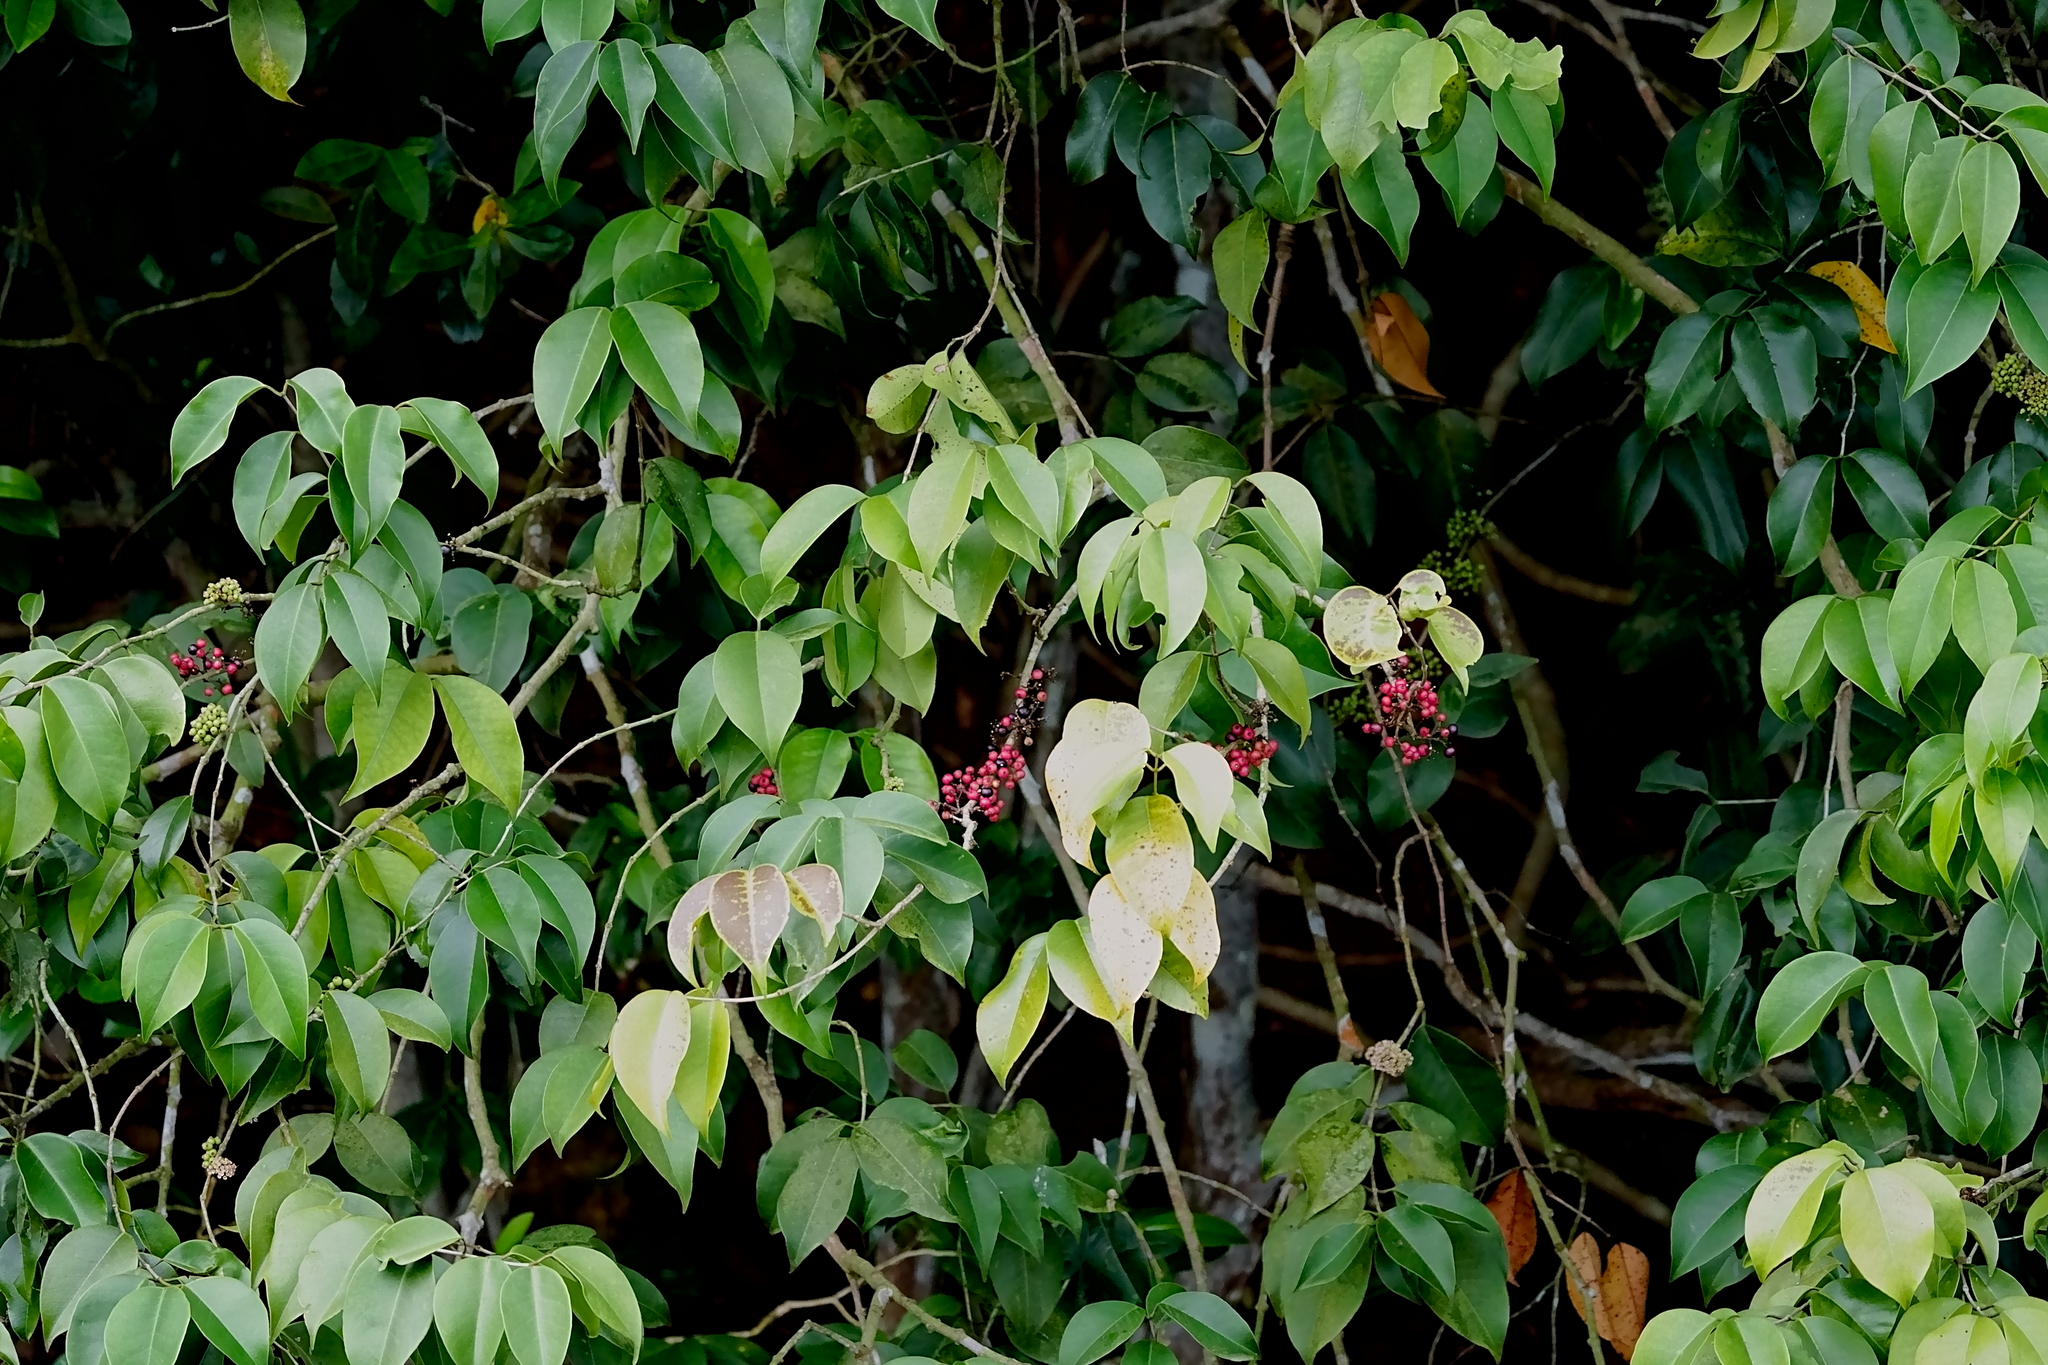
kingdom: Plantae
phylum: Tracheophyta
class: Magnoliopsida
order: Myrtales
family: Melastomataceae
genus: Memecylon
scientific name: Memecylon ovatum
